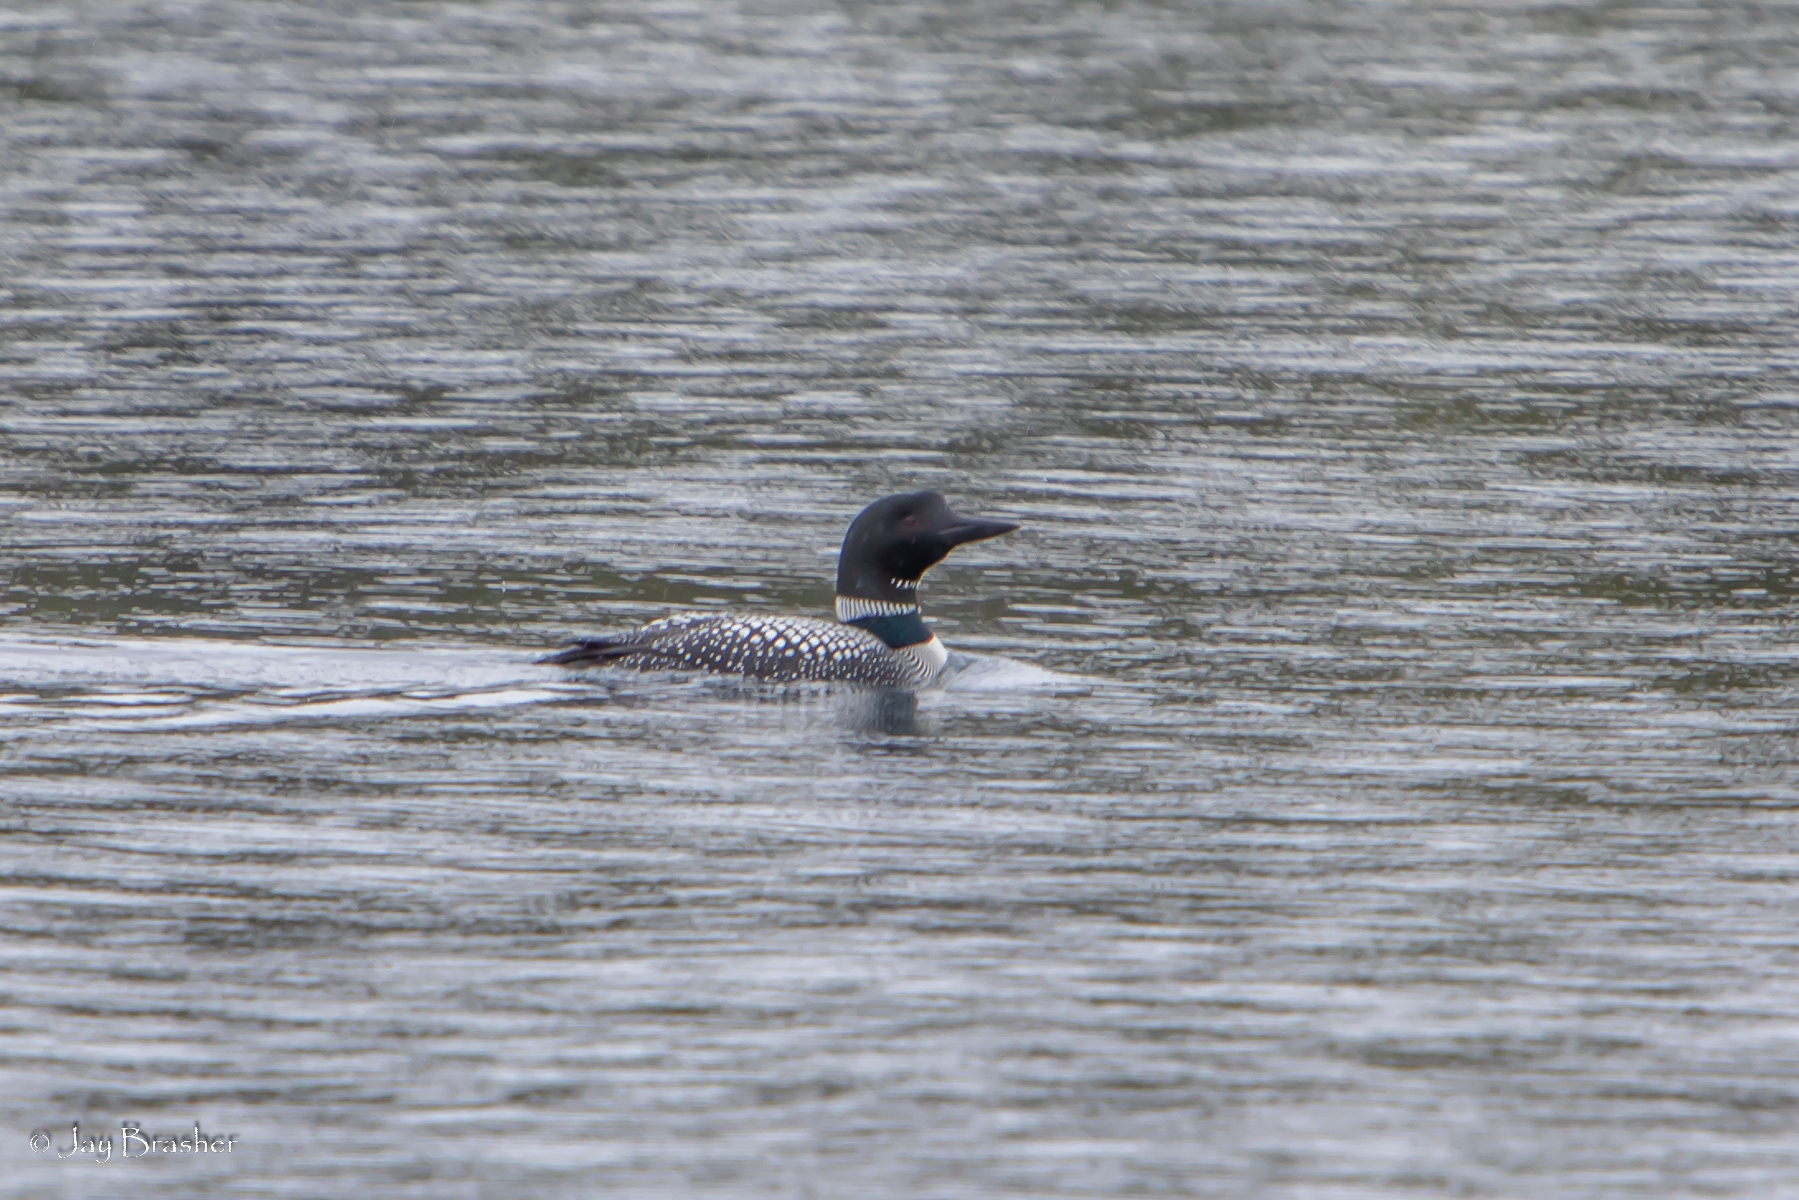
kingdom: Animalia
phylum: Chordata
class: Aves
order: Gaviiformes
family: Gaviidae
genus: Gavia
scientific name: Gavia immer
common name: Common loon
